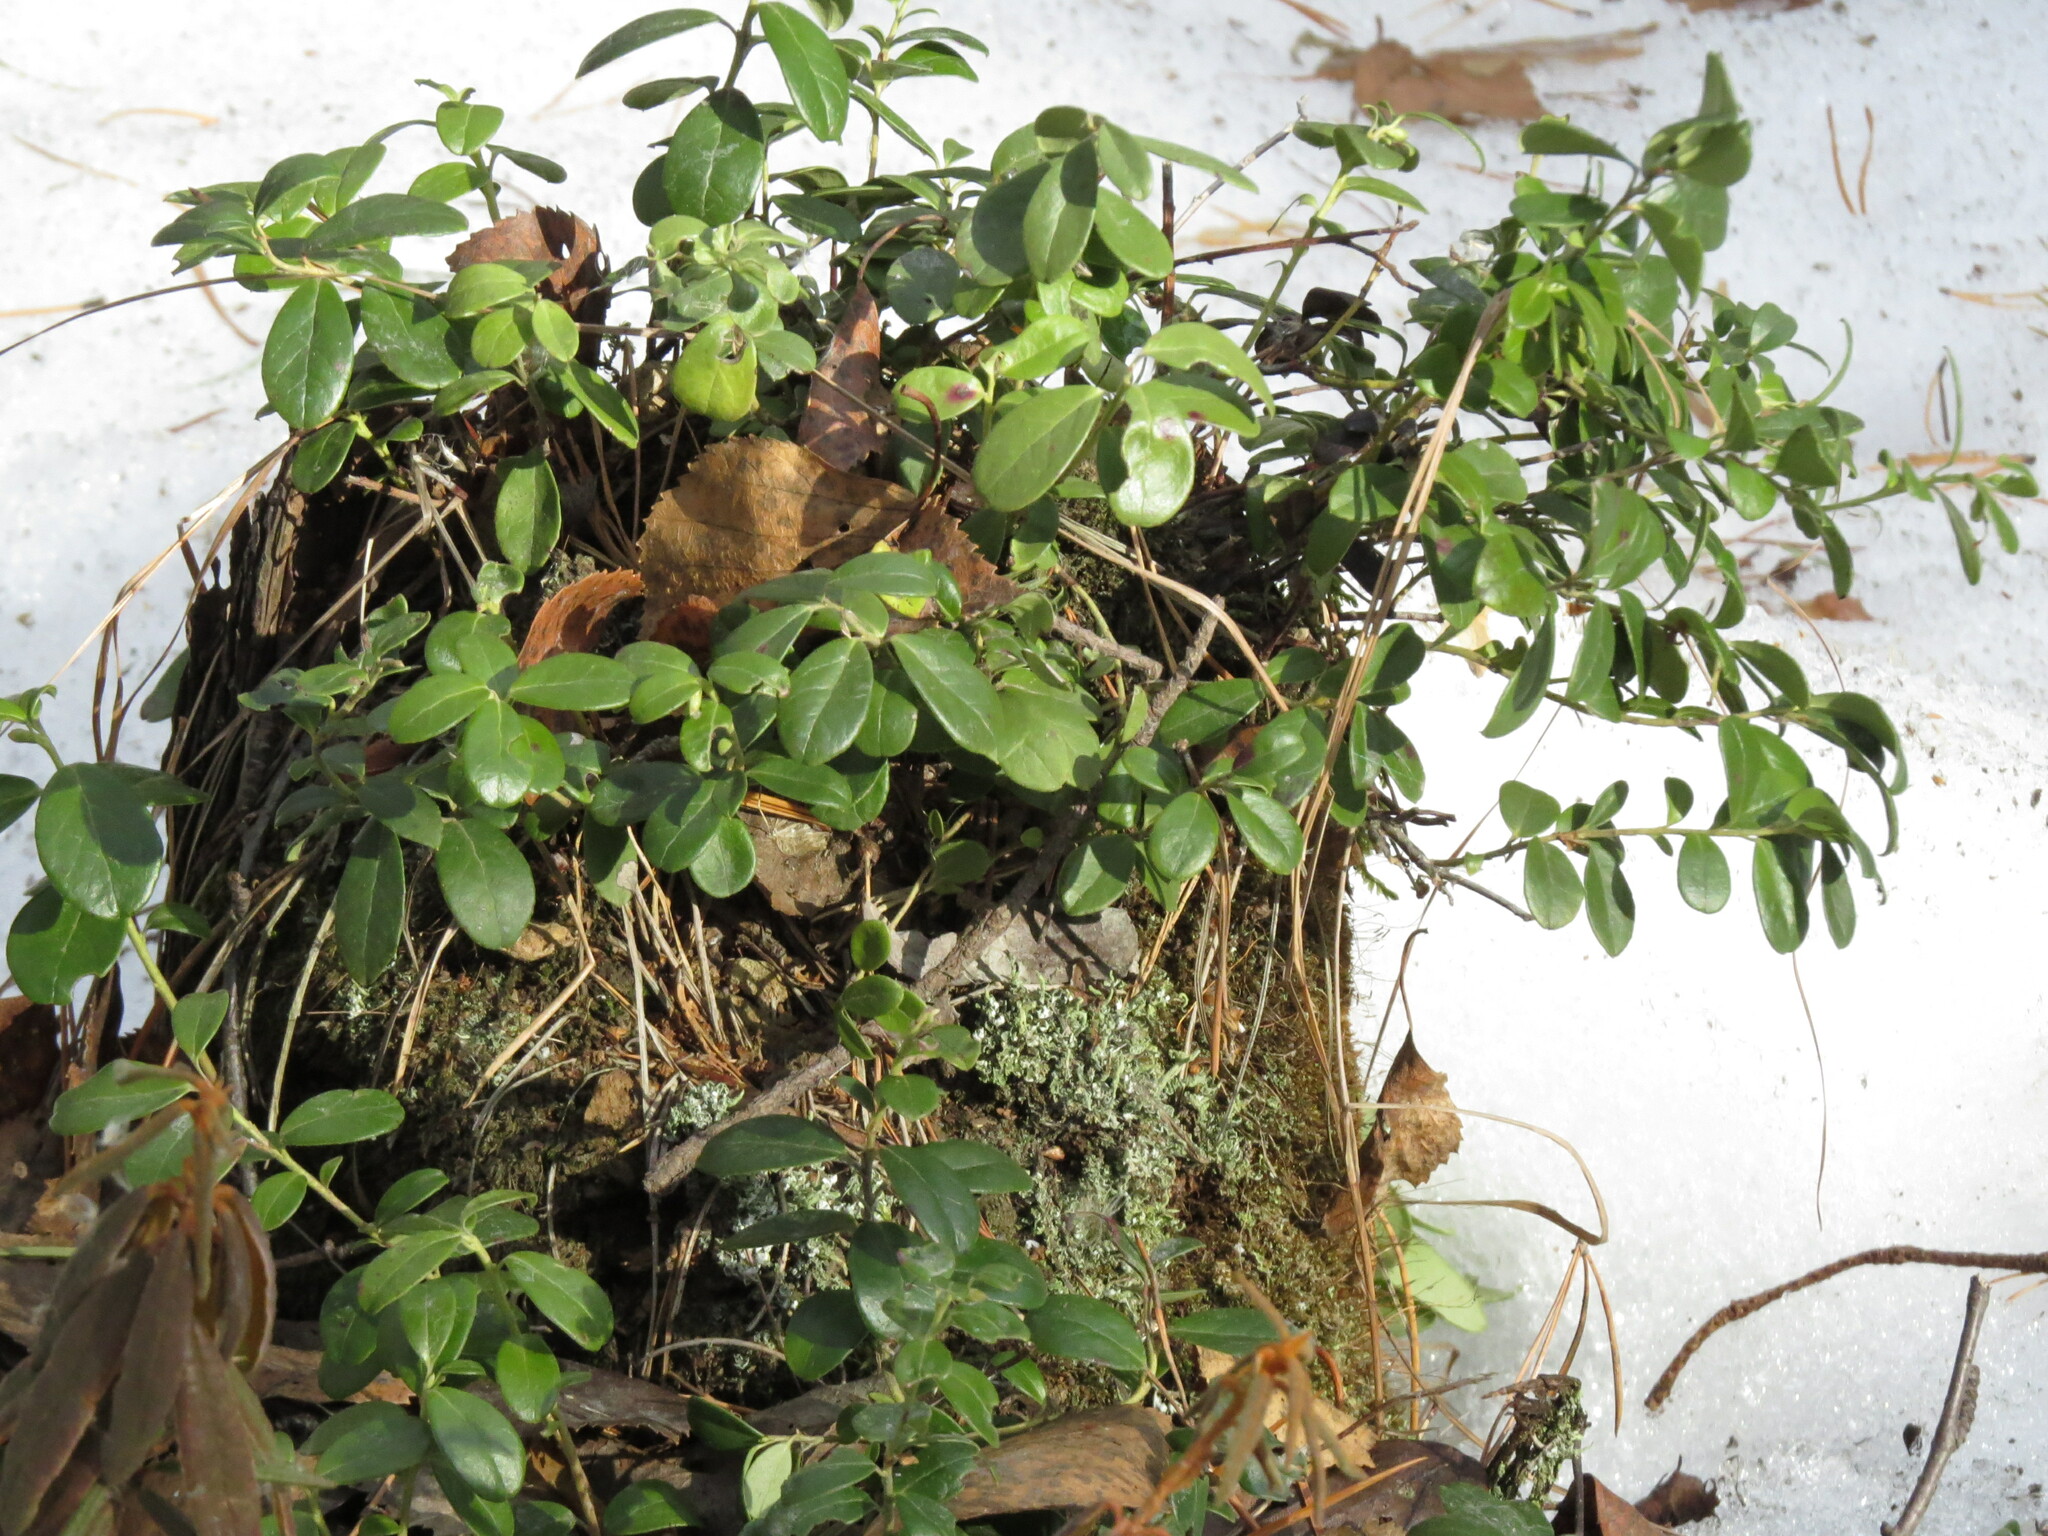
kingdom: Plantae
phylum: Tracheophyta
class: Magnoliopsida
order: Ericales
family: Ericaceae
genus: Vaccinium
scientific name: Vaccinium vitis-idaea
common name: Cowberry
